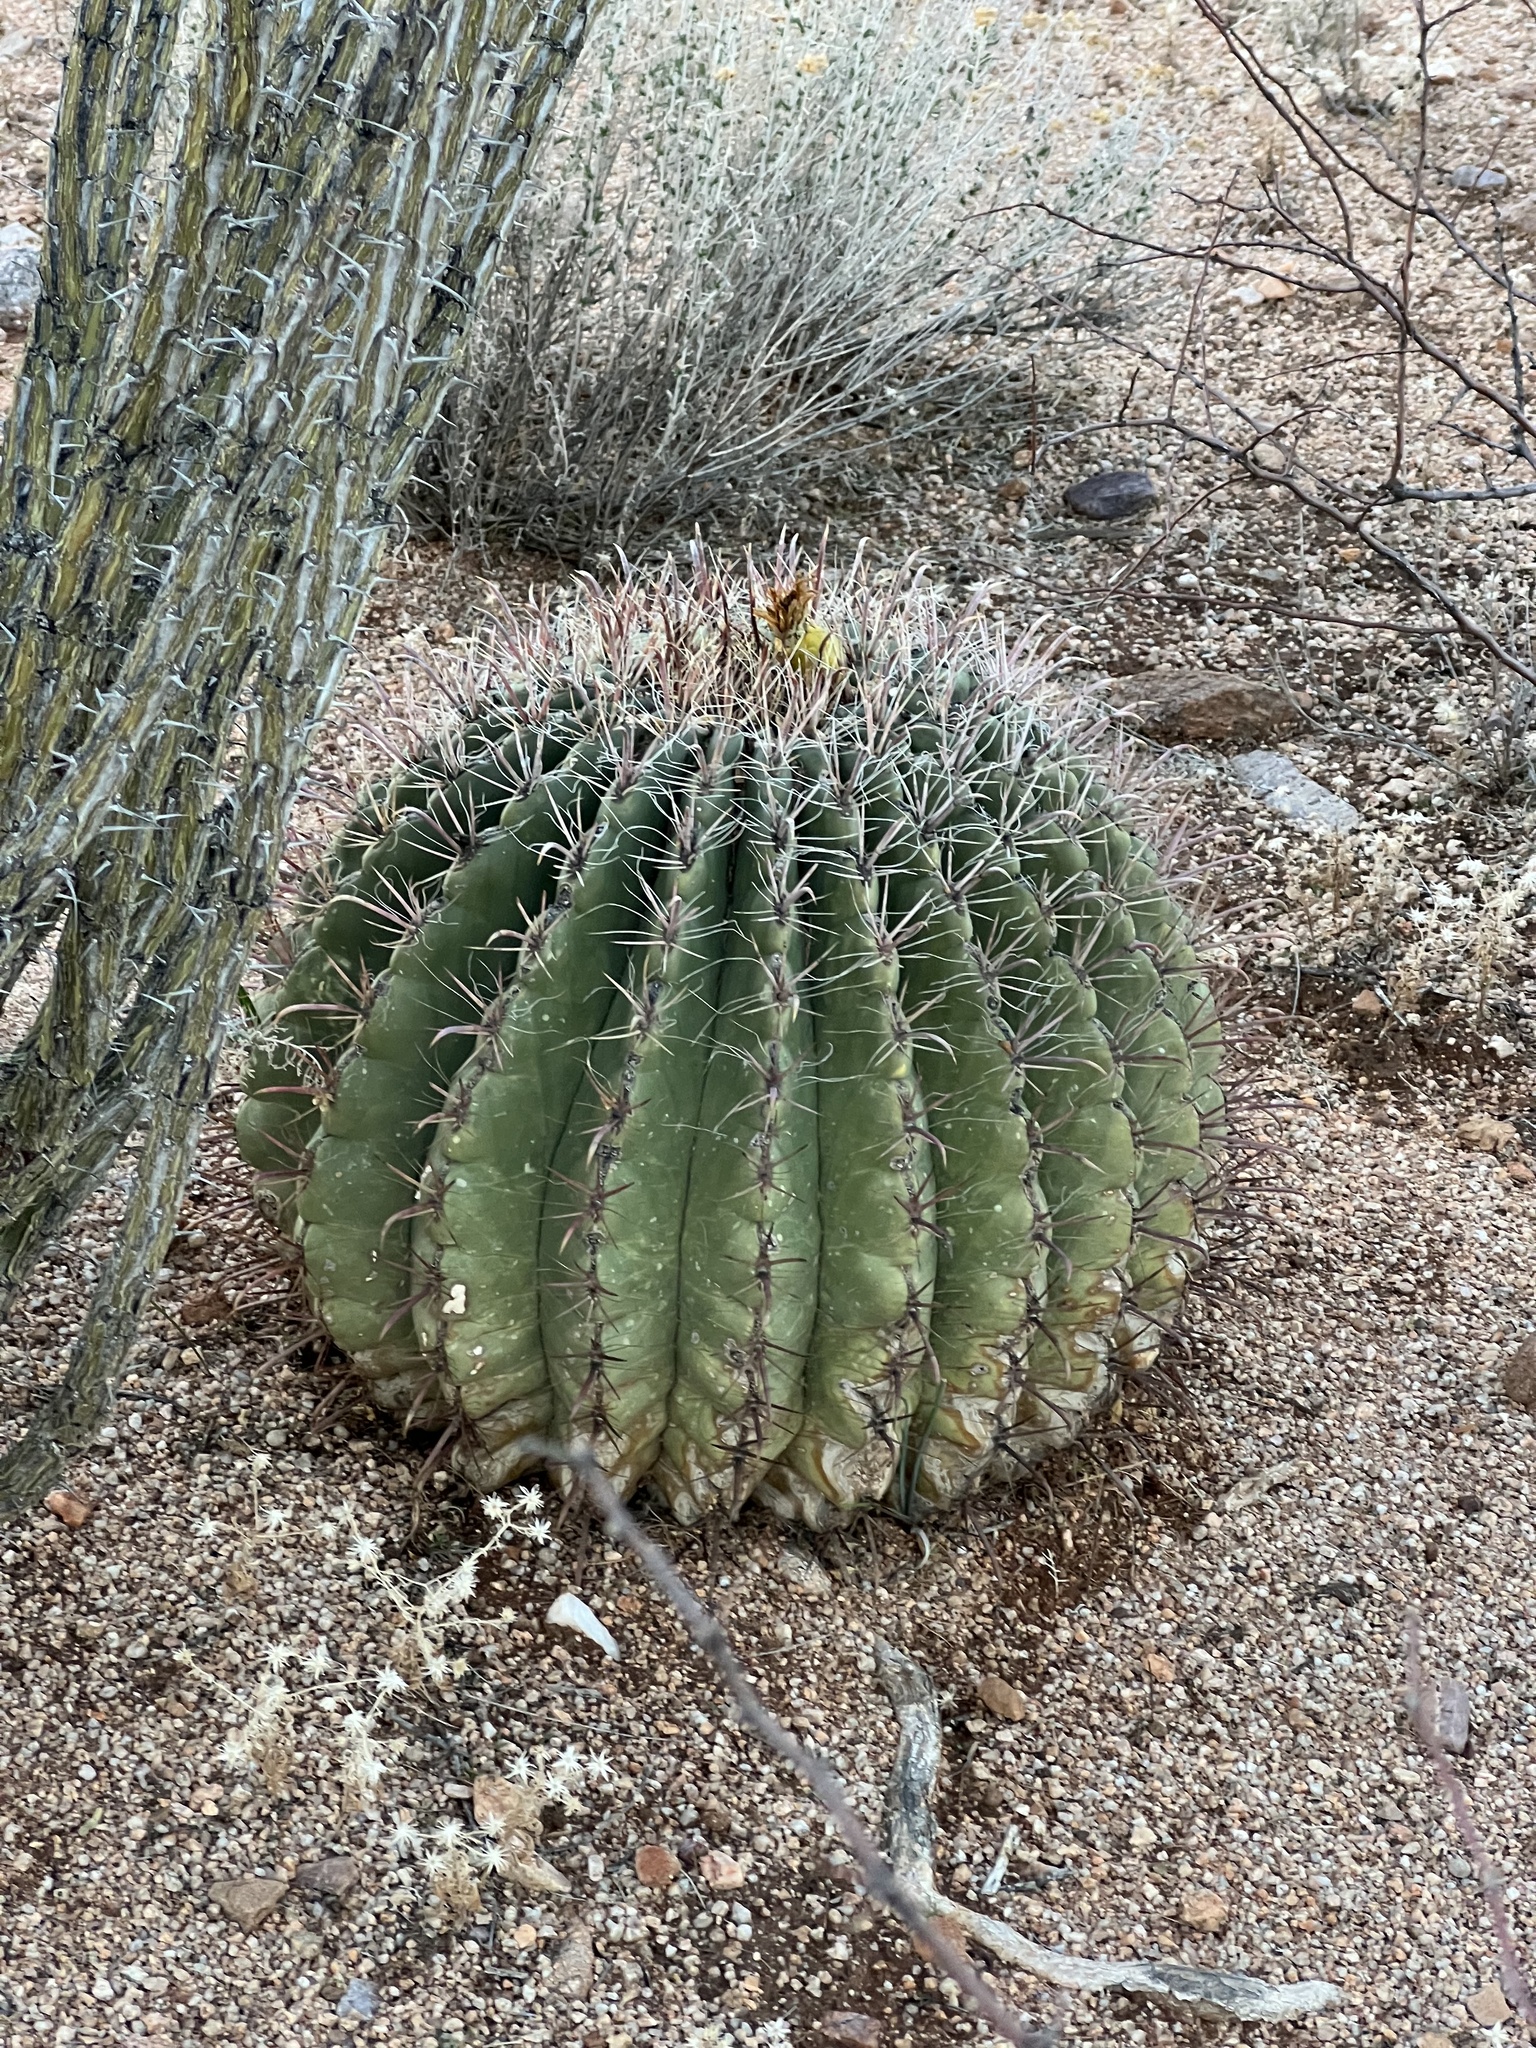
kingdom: Plantae
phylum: Tracheophyta
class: Magnoliopsida
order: Caryophyllales
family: Cactaceae
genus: Ferocactus
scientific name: Ferocactus wislizeni
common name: Candy barrel cactus
